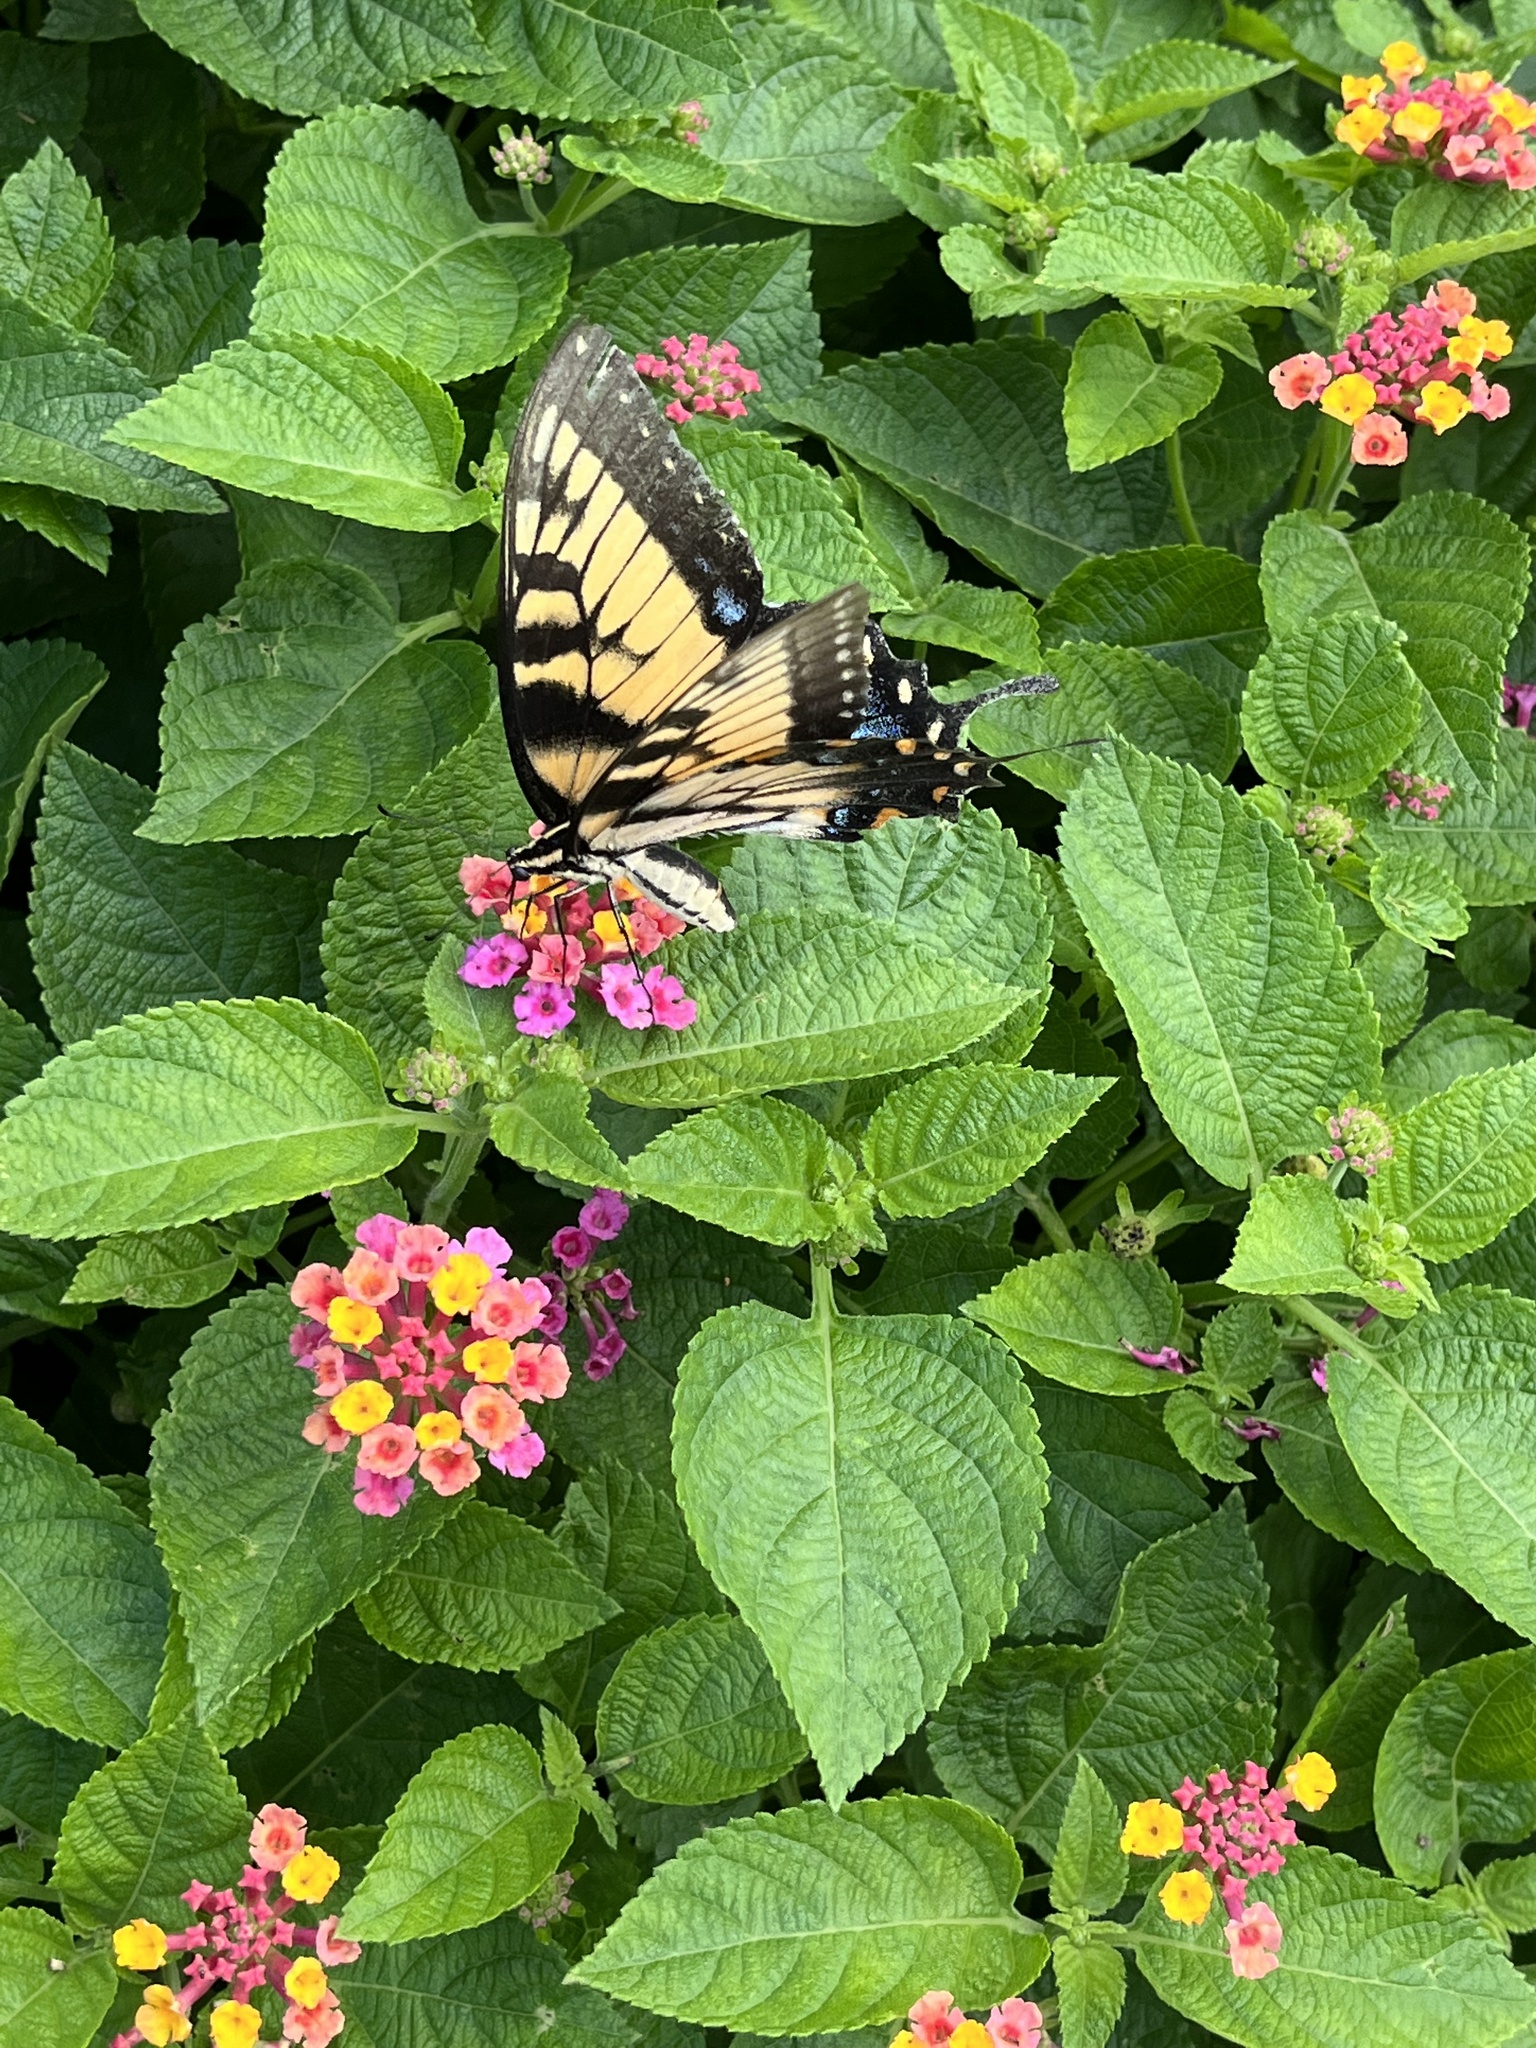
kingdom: Animalia
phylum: Arthropoda
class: Insecta
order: Lepidoptera
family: Papilionidae
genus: Papilio
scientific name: Papilio glaucus
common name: Tiger swallowtail
